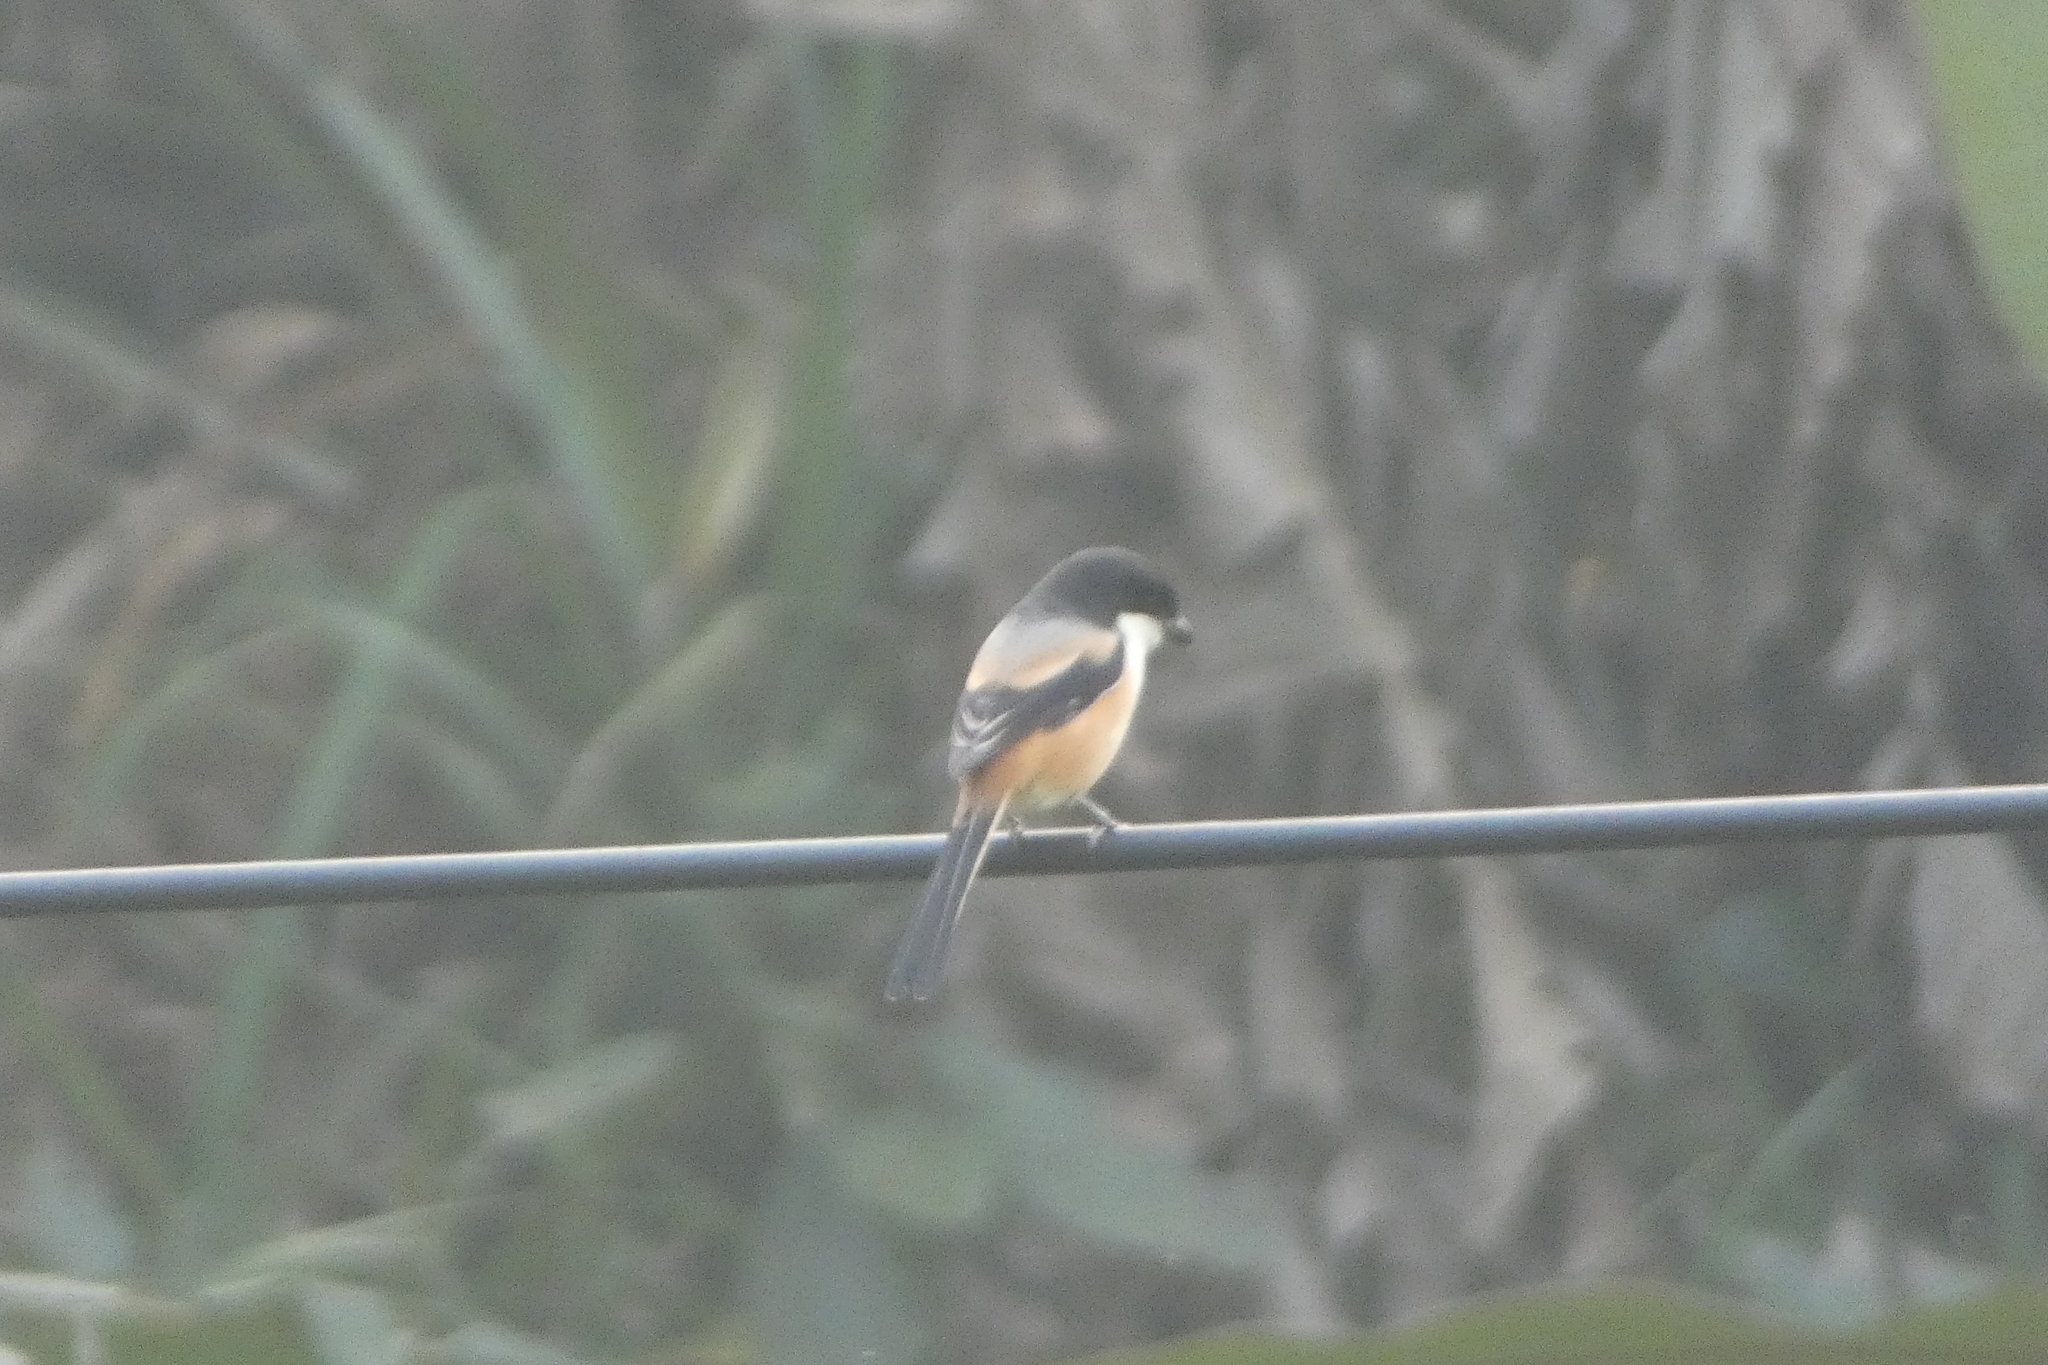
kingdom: Animalia
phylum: Chordata
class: Aves
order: Passeriformes
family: Laniidae
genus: Lanius
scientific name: Lanius schach
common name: Long-tailed shrike
